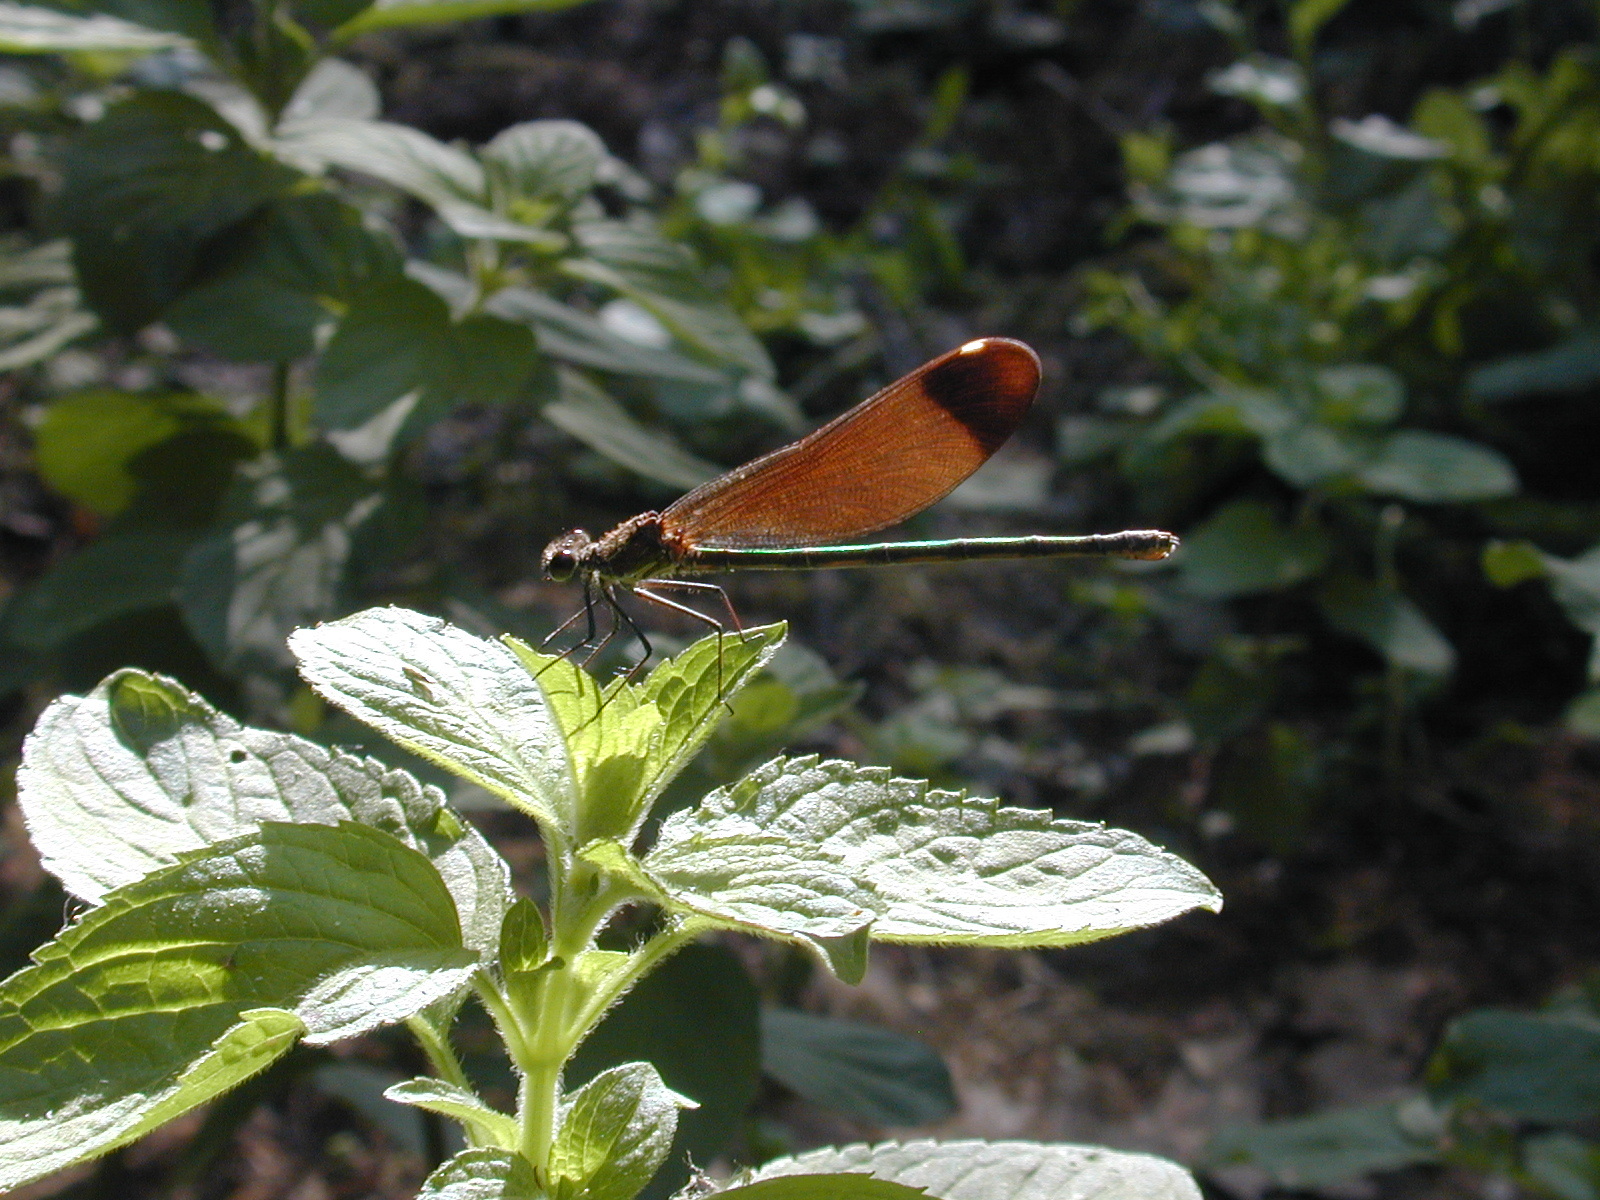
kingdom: Animalia
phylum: Arthropoda
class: Insecta
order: Odonata
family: Calopterygidae
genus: Calopteryx
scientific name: Calopteryx haemorrhoidalis
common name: Copper demoiselle
